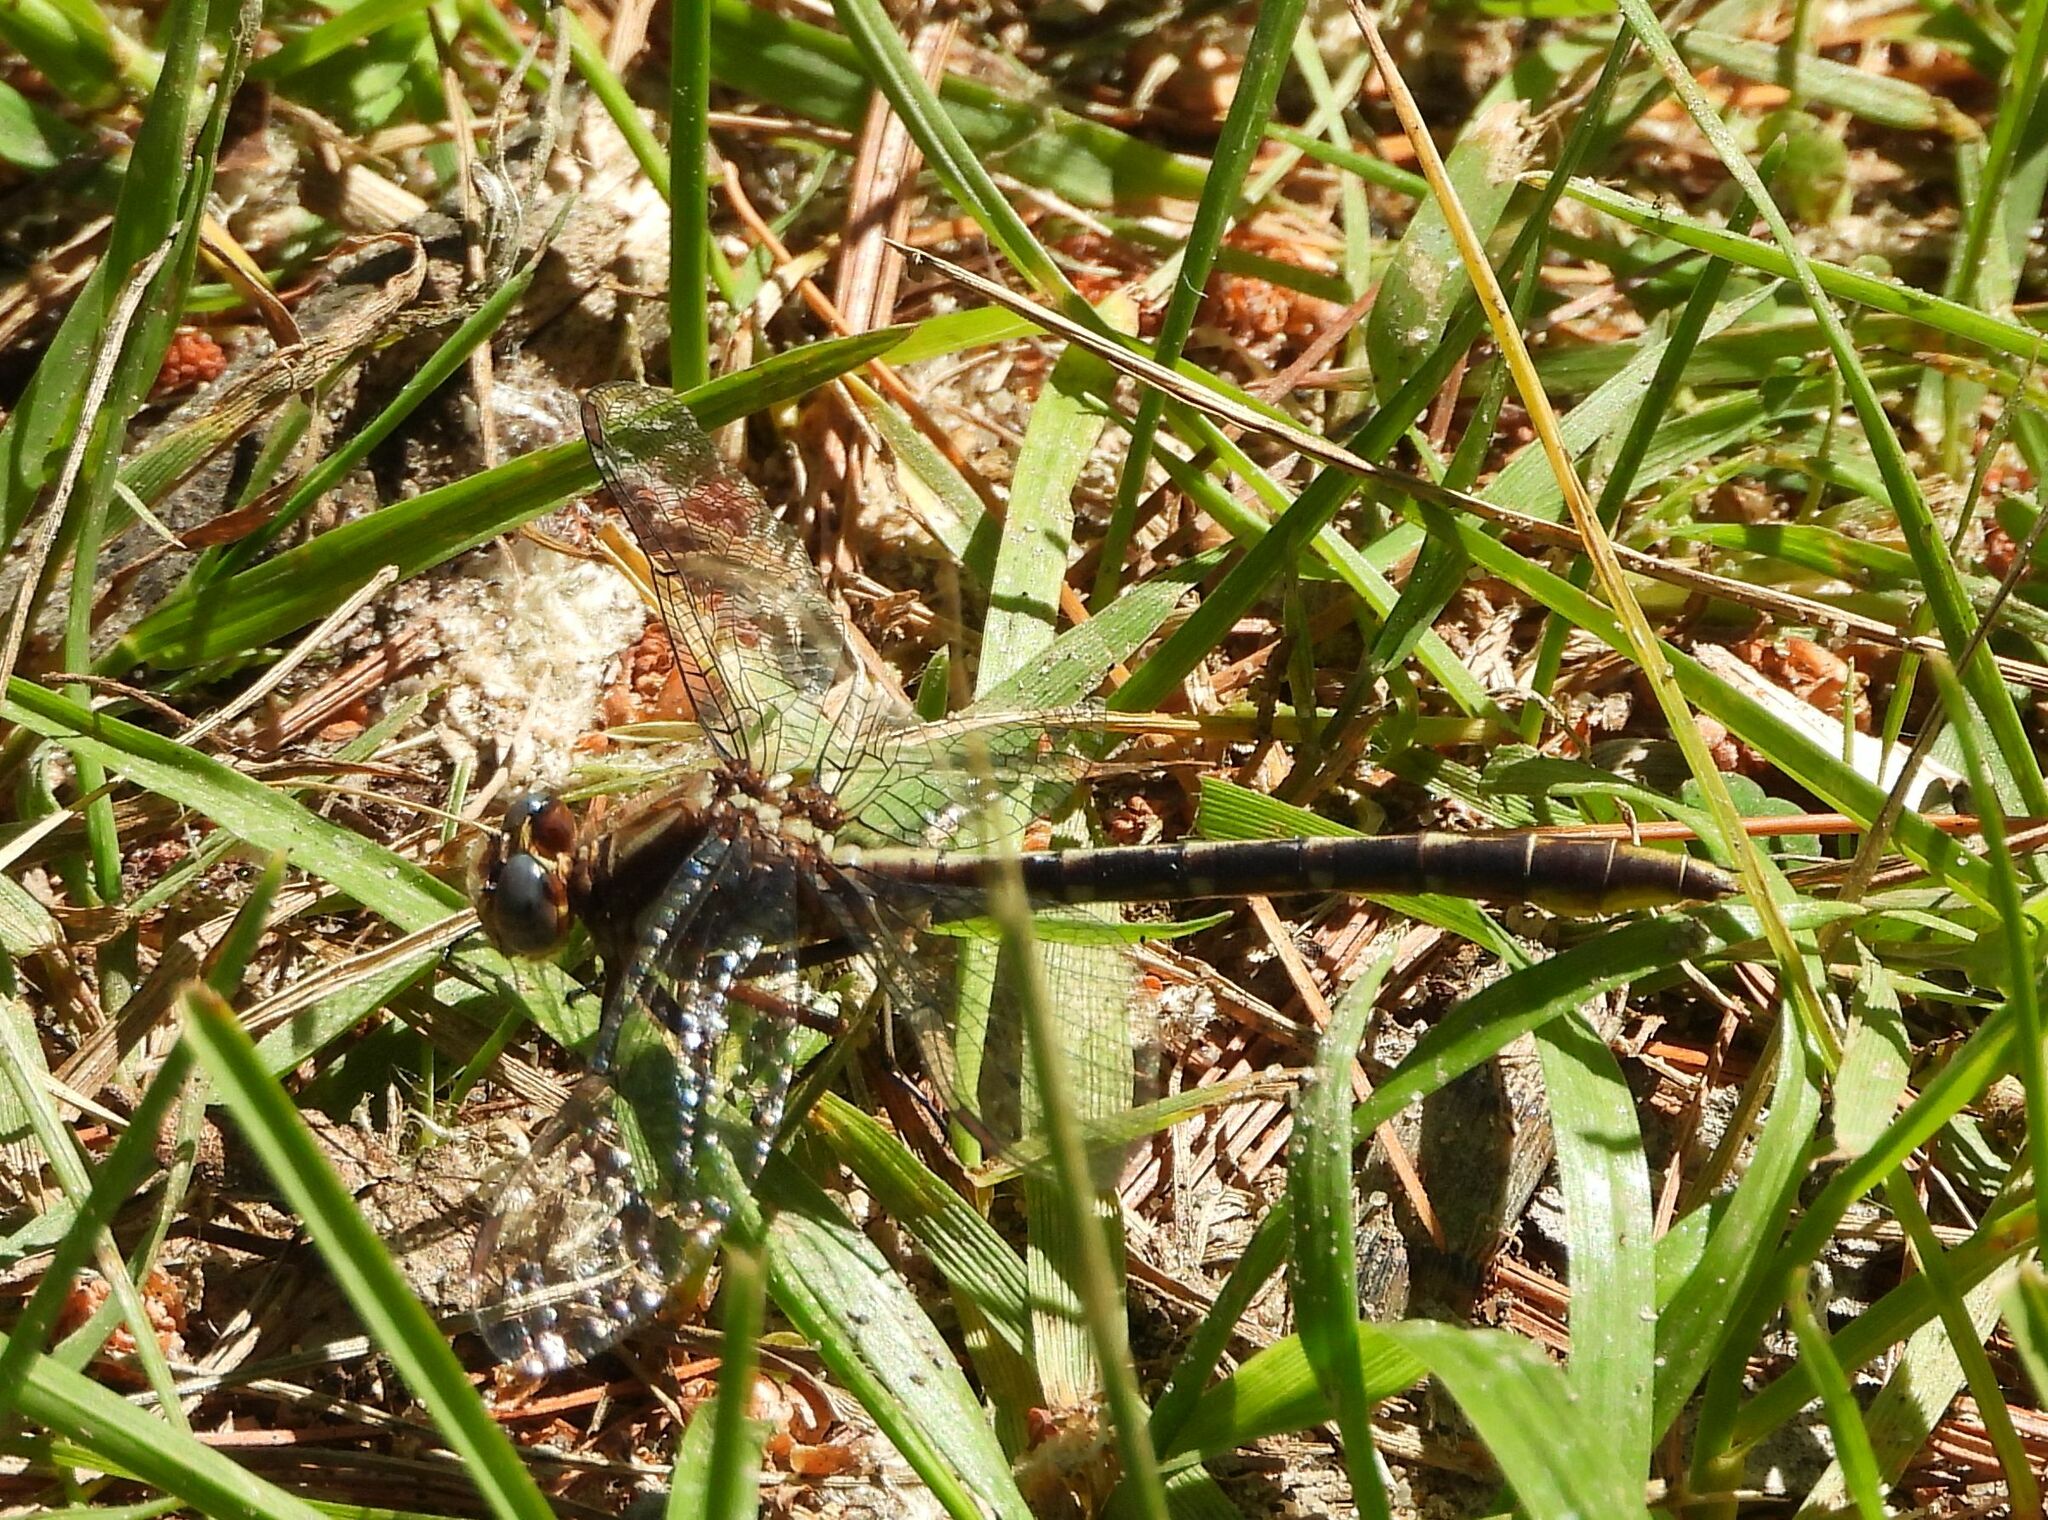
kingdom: Animalia
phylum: Arthropoda
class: Insecta
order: Odonata
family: Gomphidae
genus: Phanogomphus
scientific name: Phanogomphus exilis
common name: Lancet clubtail
